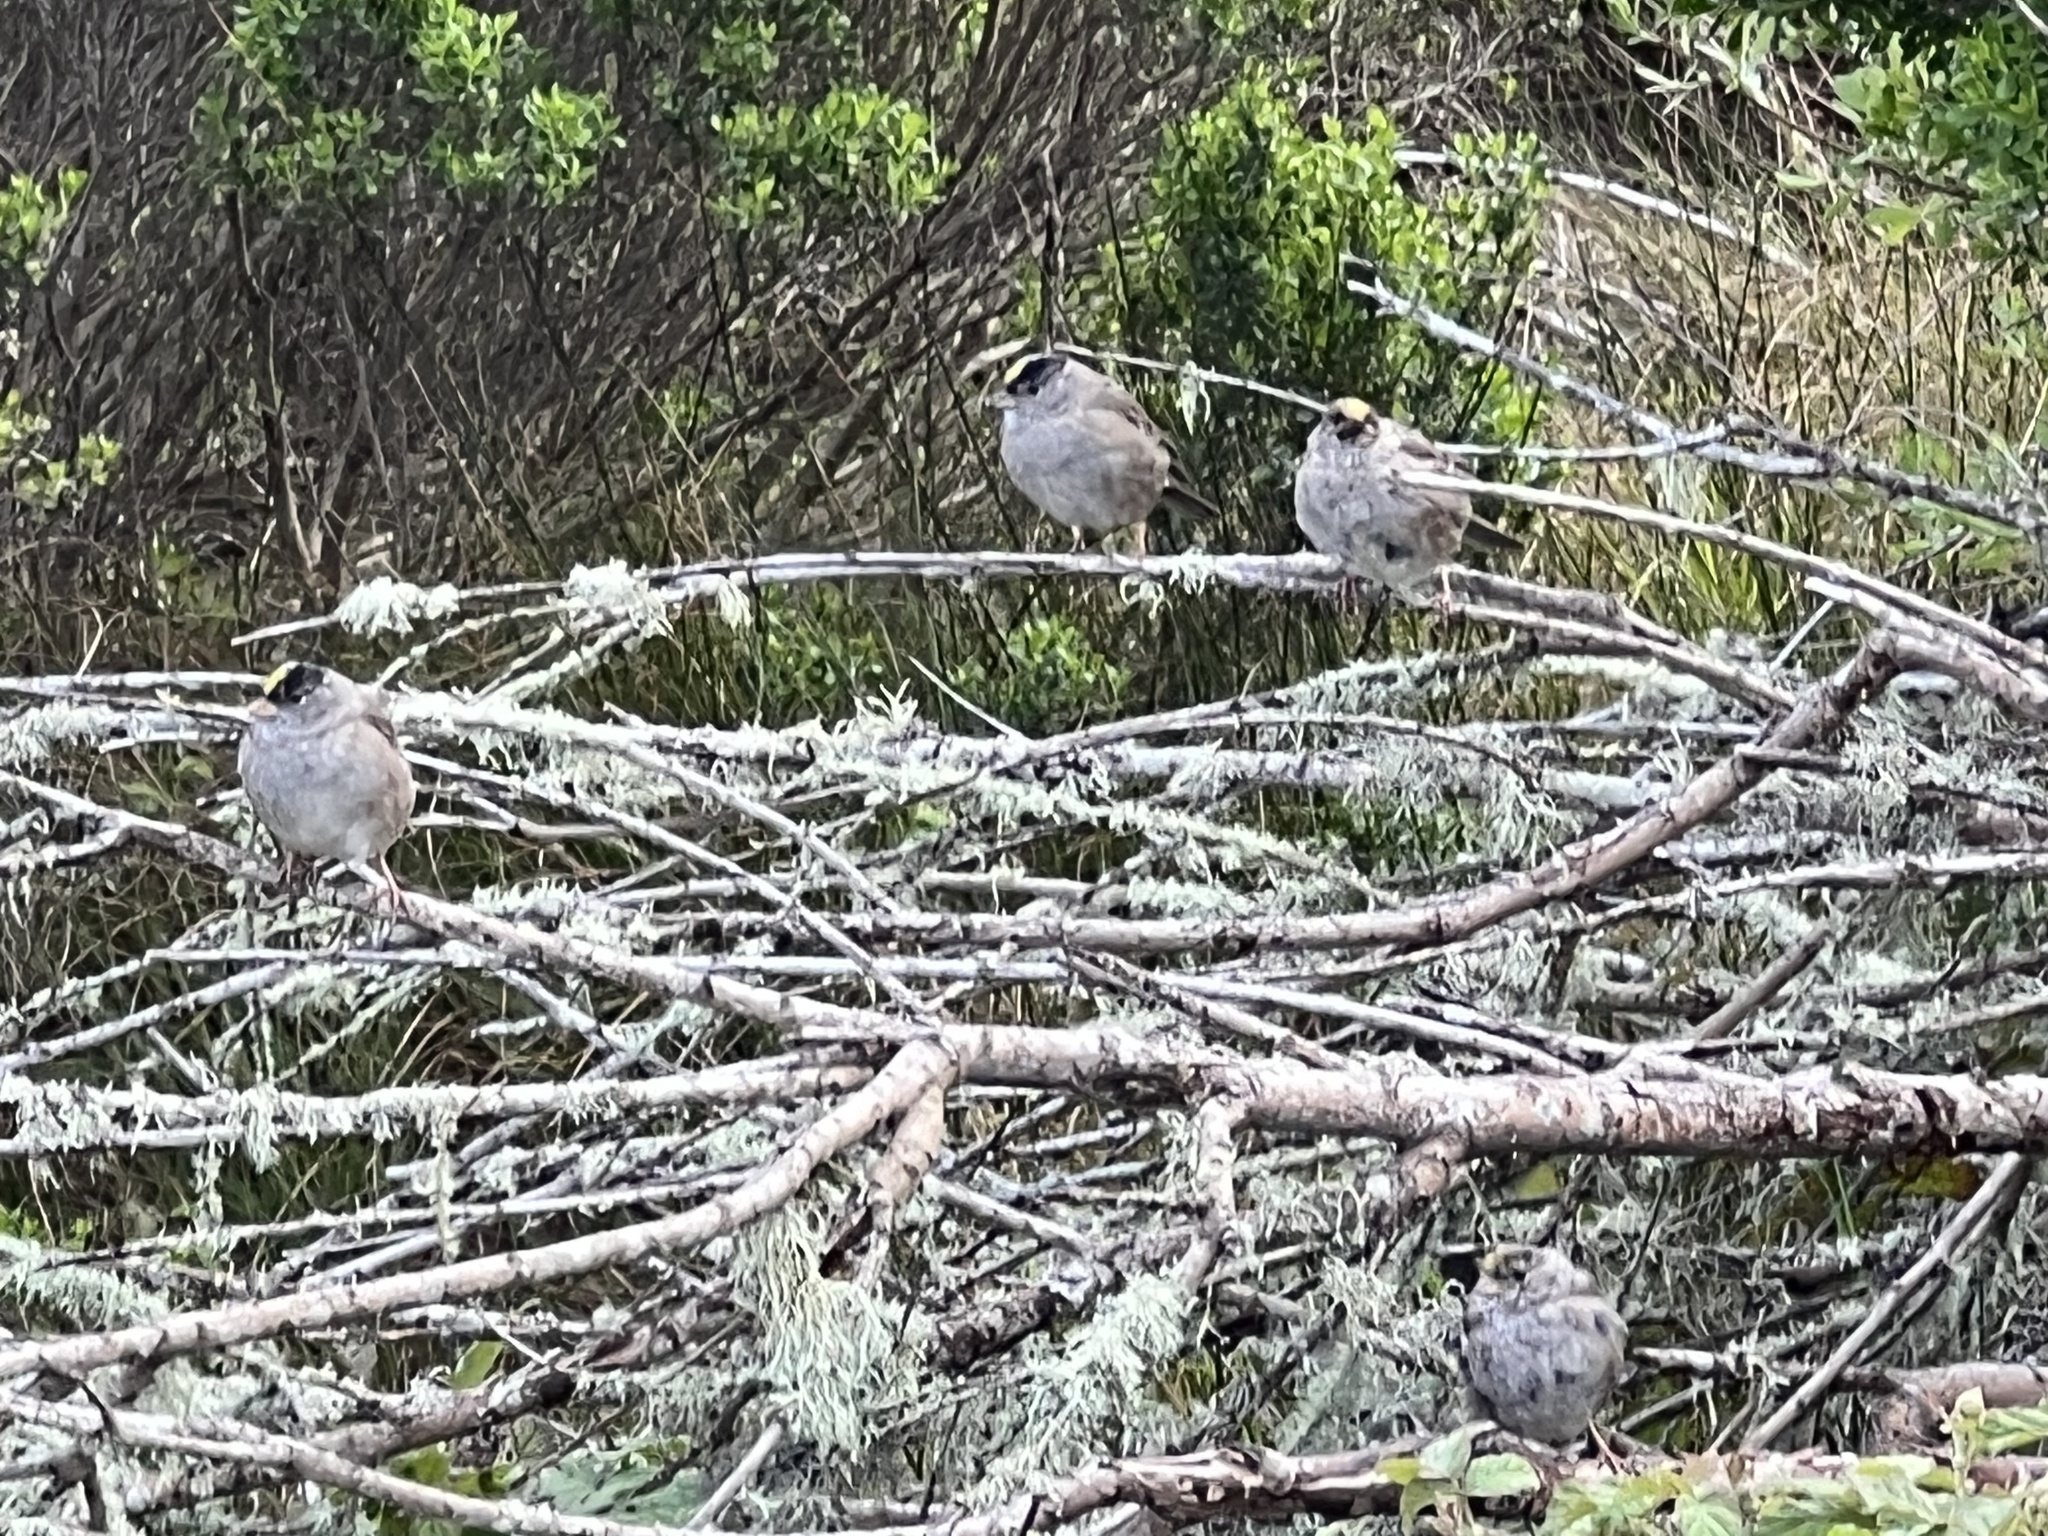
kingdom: Animalia
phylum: Chordata
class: Aves
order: Passeriformes
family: Passerellidae
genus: Zonotrichia
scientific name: Zonotrichia atricapilla
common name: Golden-crowned sparrow
